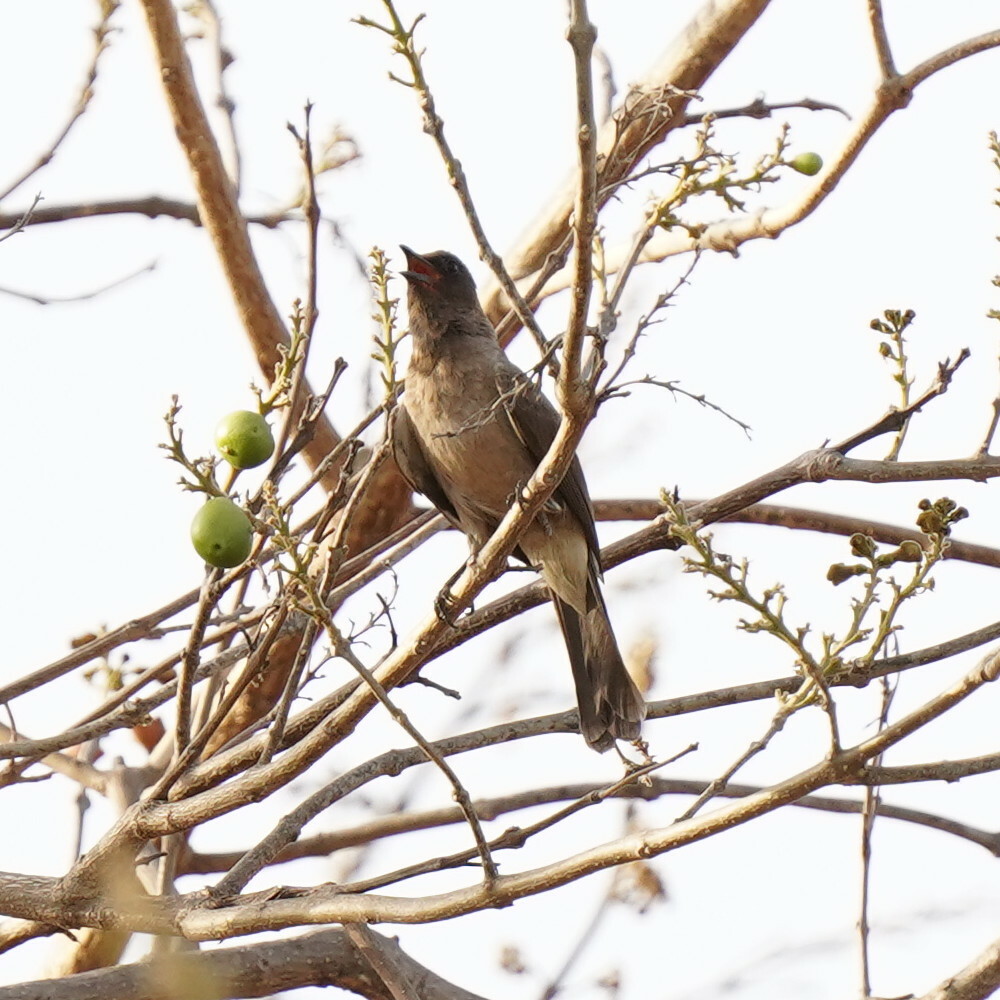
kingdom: Animalia
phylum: Chordata
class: Aves
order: Passeriformes
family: Pycnonotidae
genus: Pycnonotus
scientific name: Pycnonotus barbatus
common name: Common bulbul
